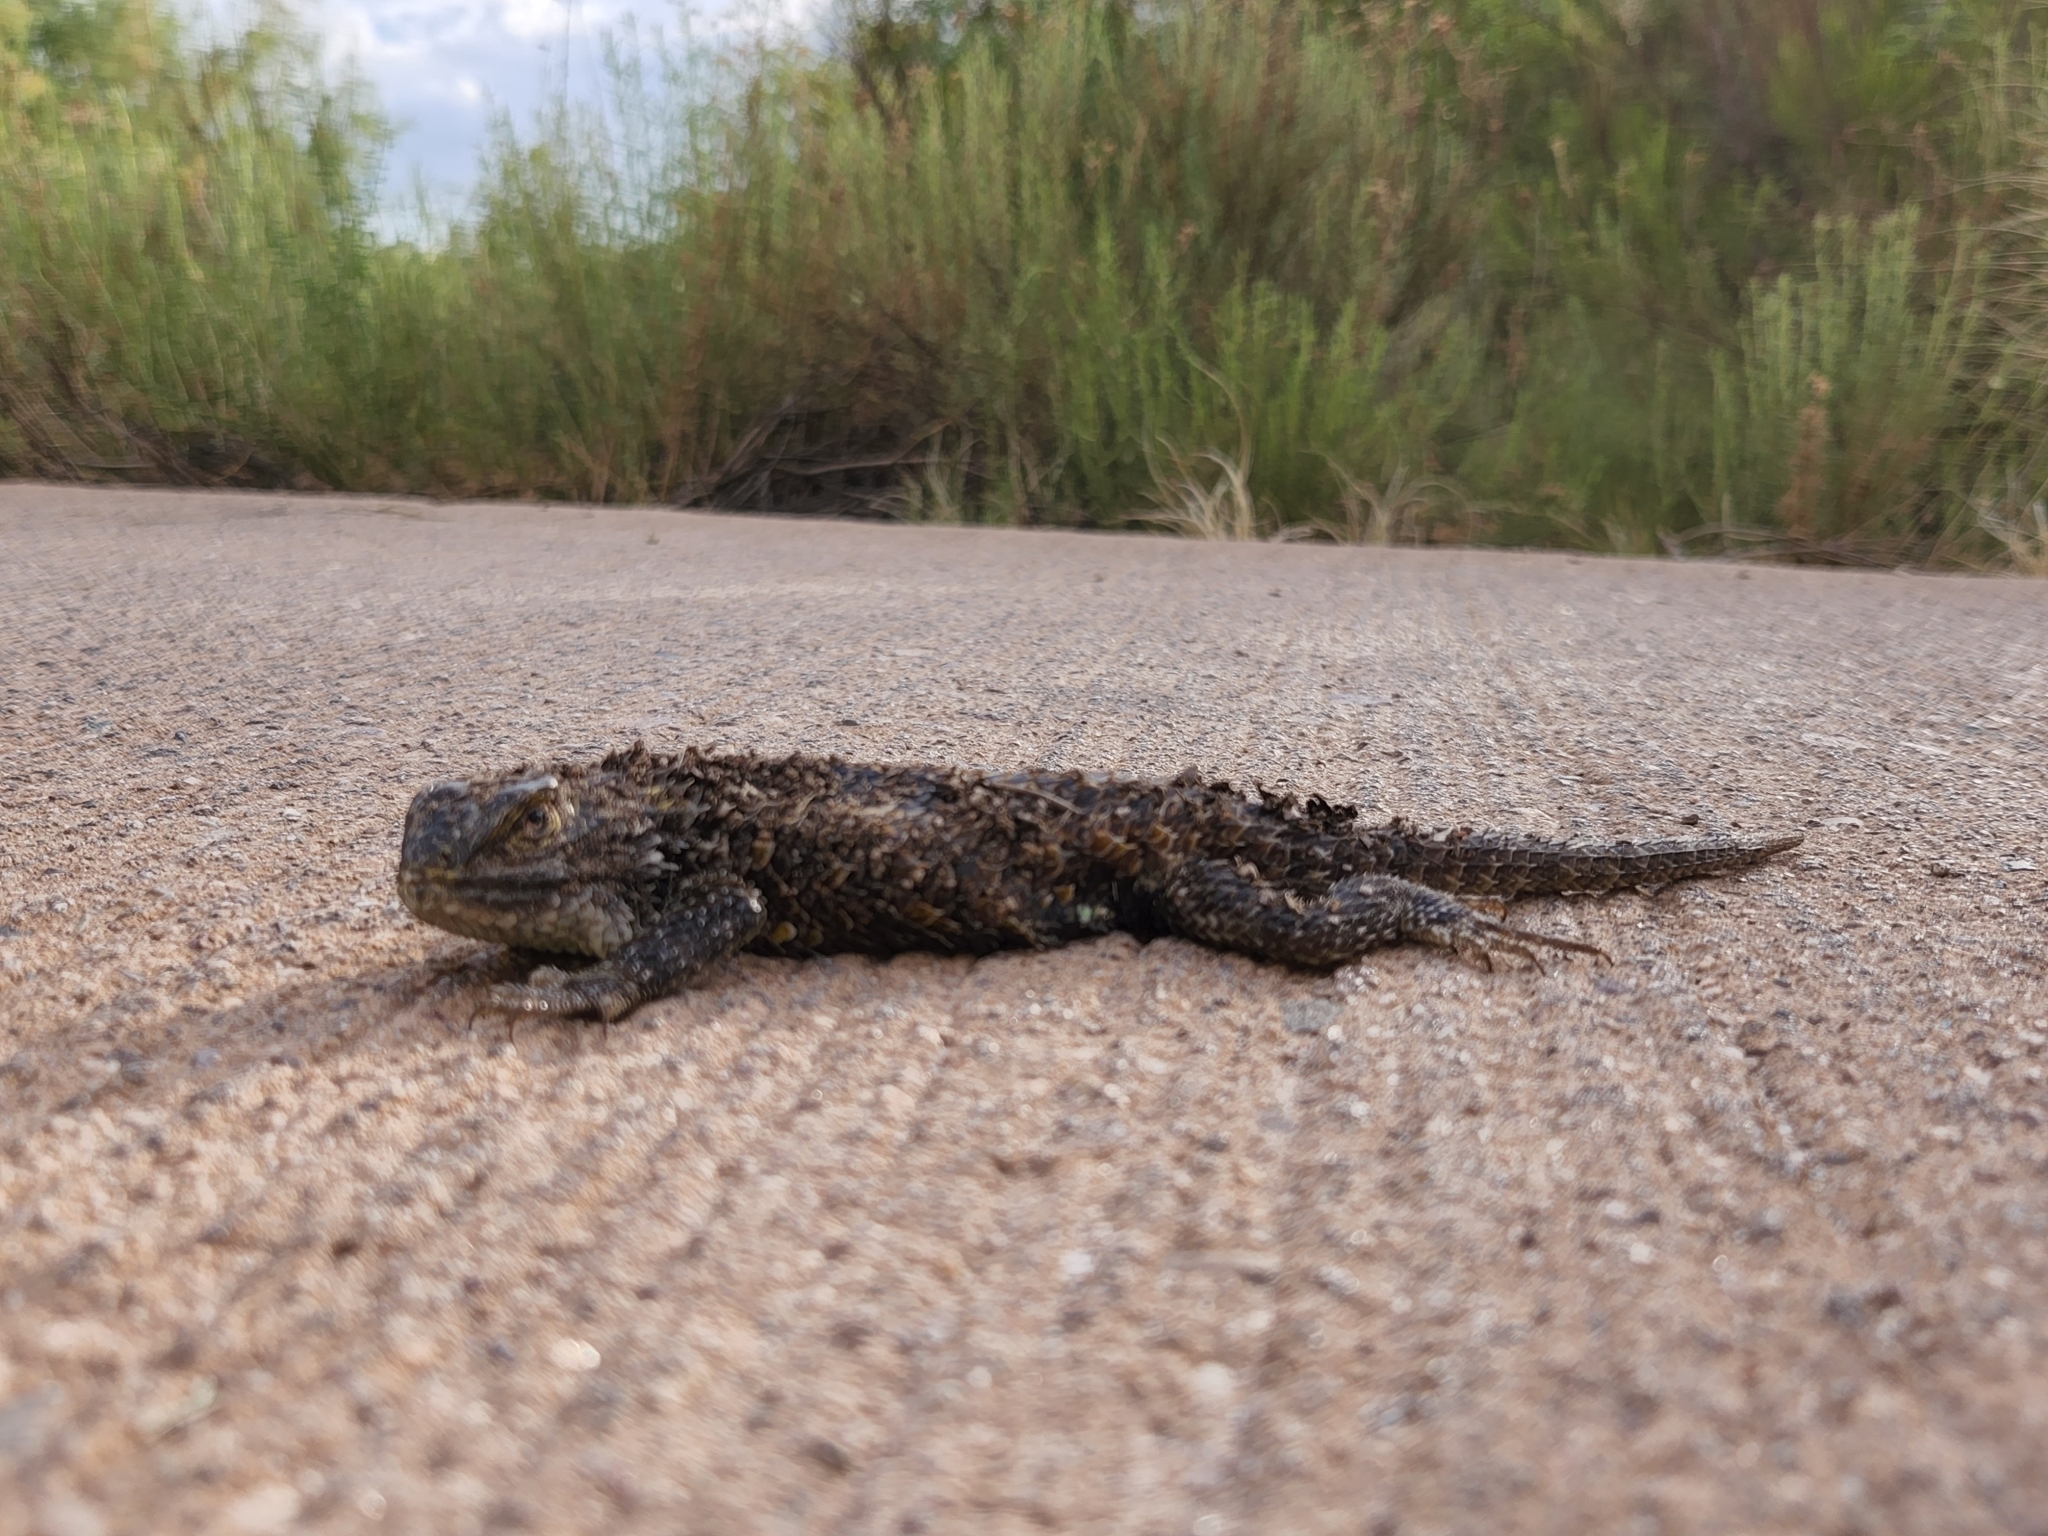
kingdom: Animalia
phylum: Chordata
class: Squamata
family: Phrynosomatidae
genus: Sceloporus
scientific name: Sceloporus magister
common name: Desert spiny lizard
